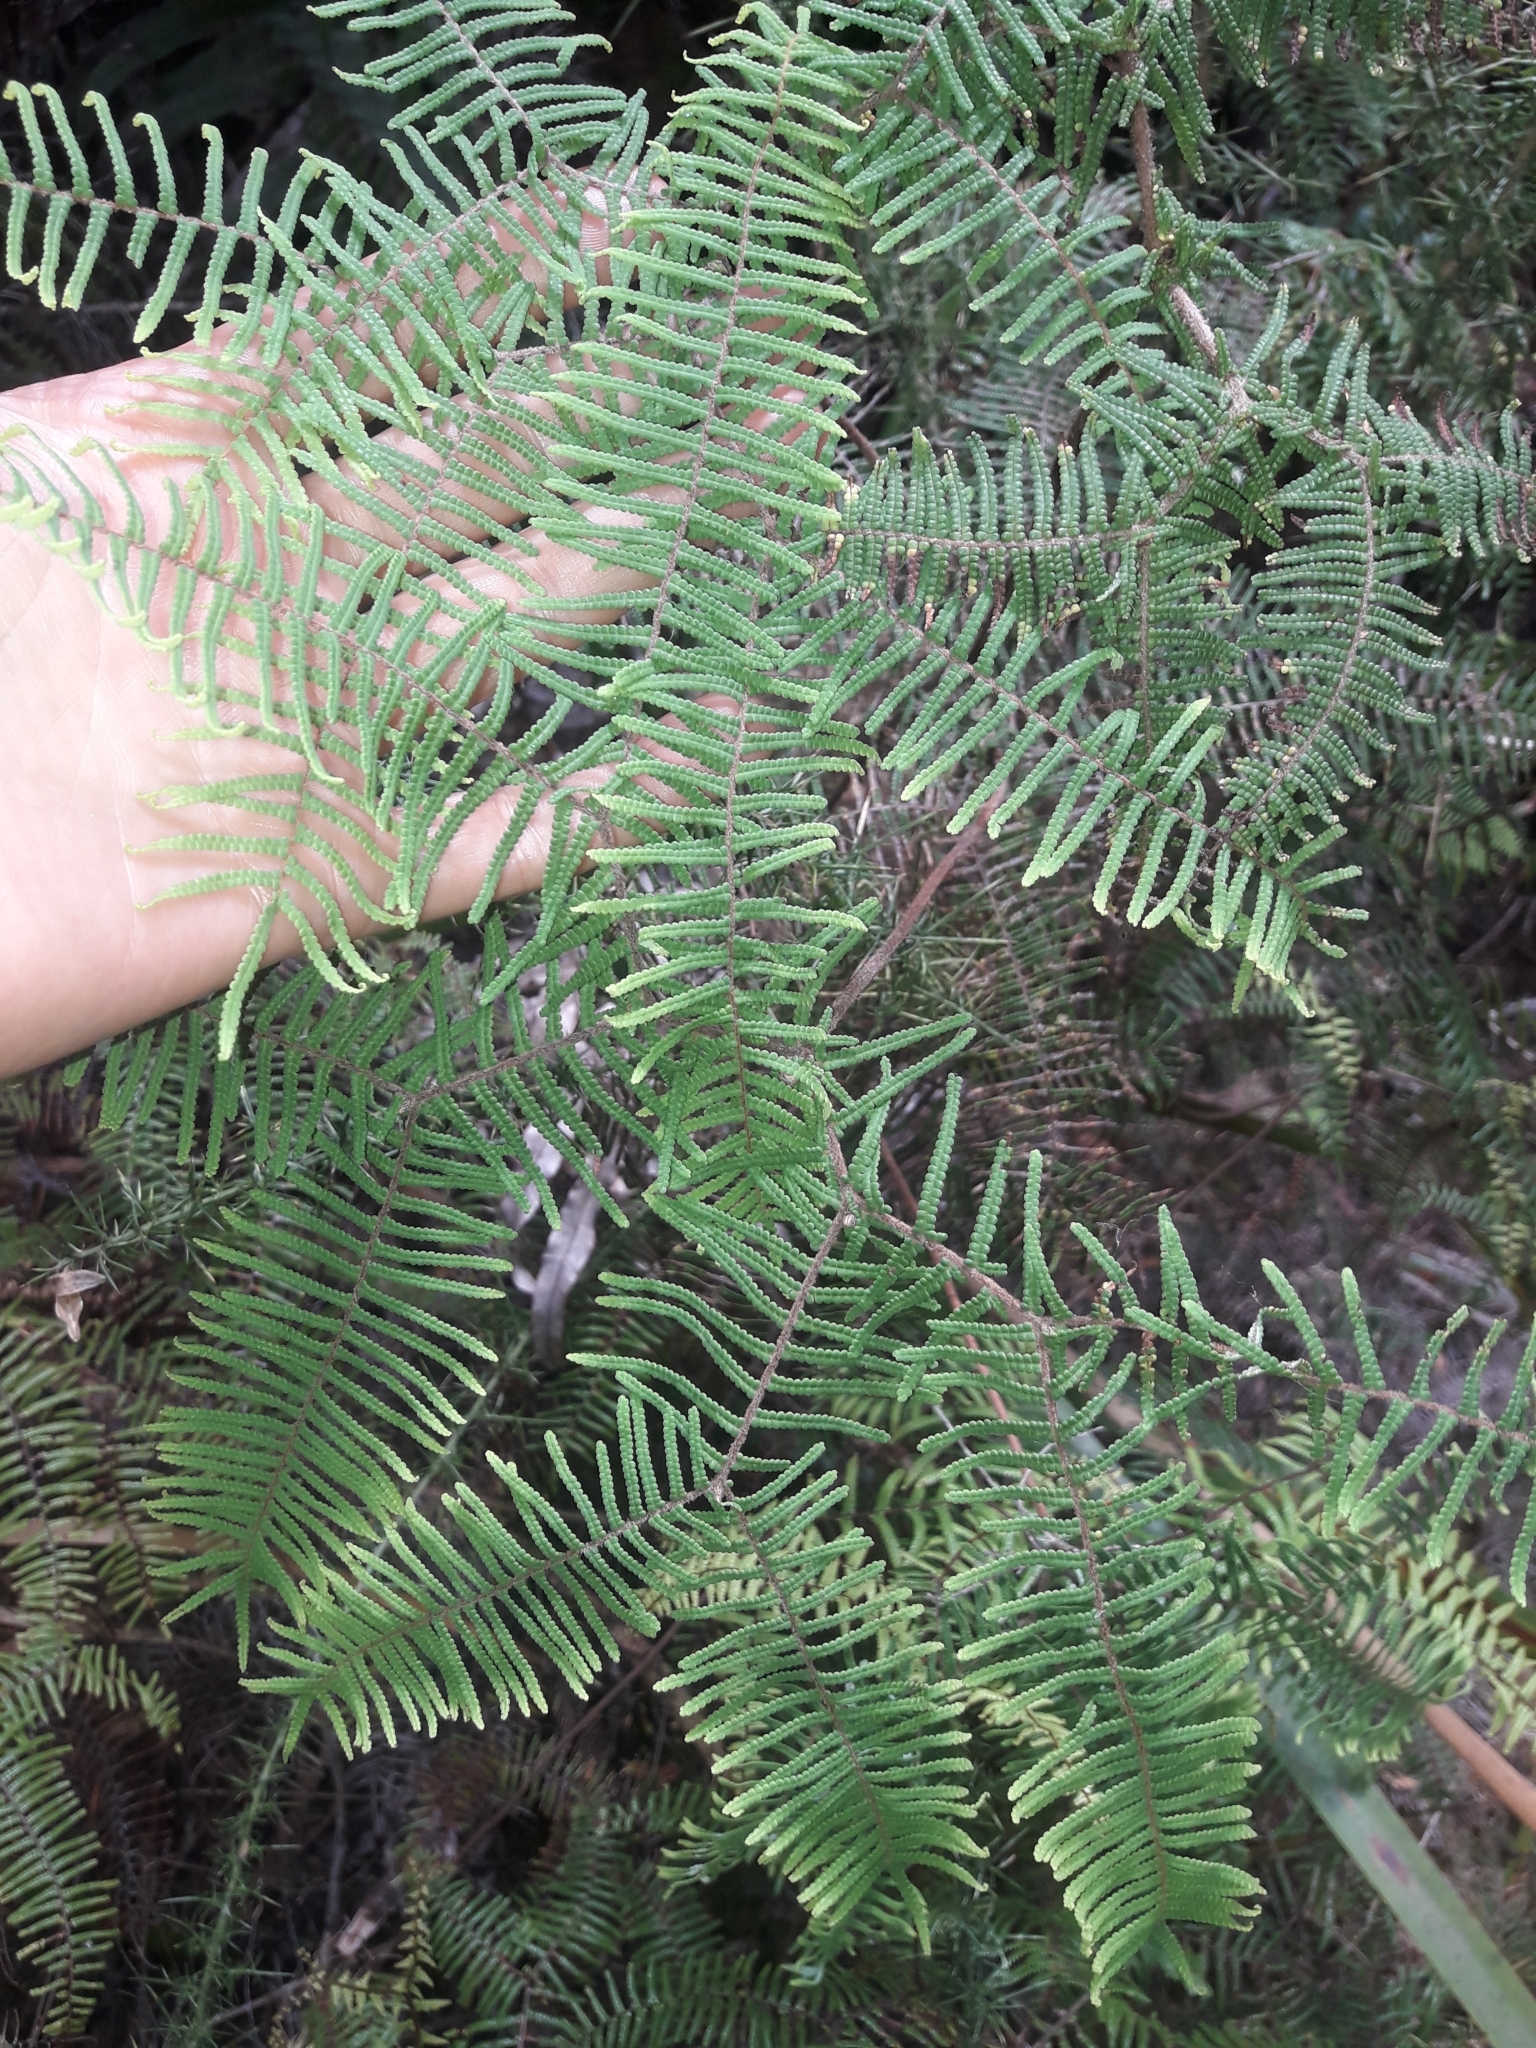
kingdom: Plantae
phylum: Tracheophyta
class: Polypodiopsida
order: Gleicheniales
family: Gleicheniaceae
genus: Gleichenia
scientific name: Gleichenia dicarpa
